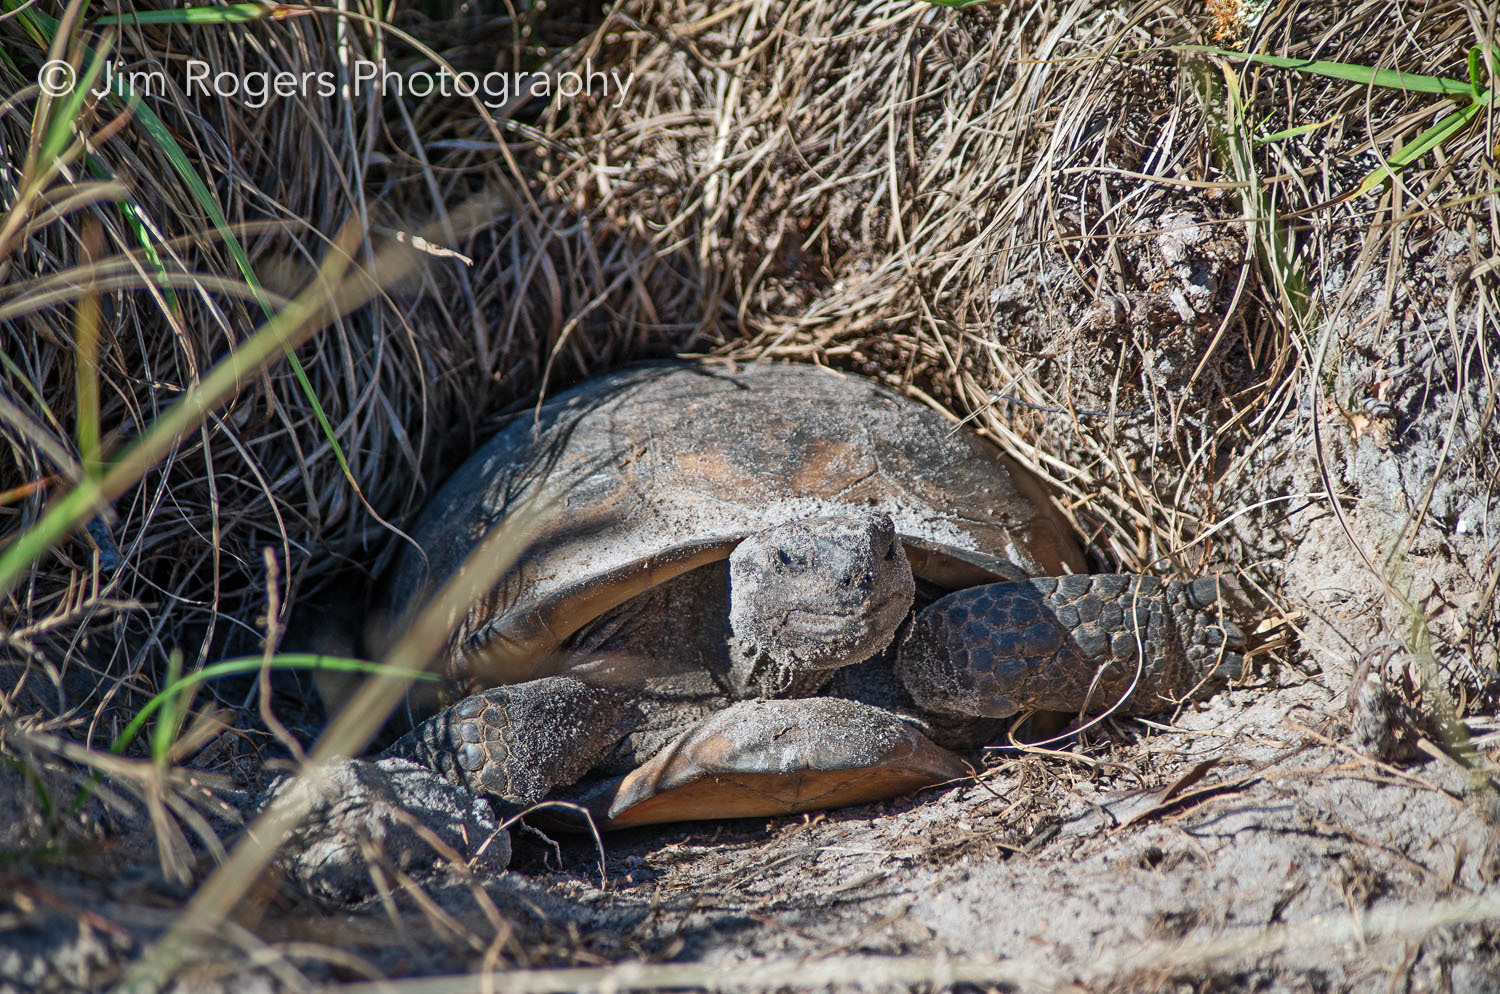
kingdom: Animalia
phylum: Chordata
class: Testudines
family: Testudinidae
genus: Gopherus
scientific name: Gopherus polyphemus
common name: Florida gopher tortoise
